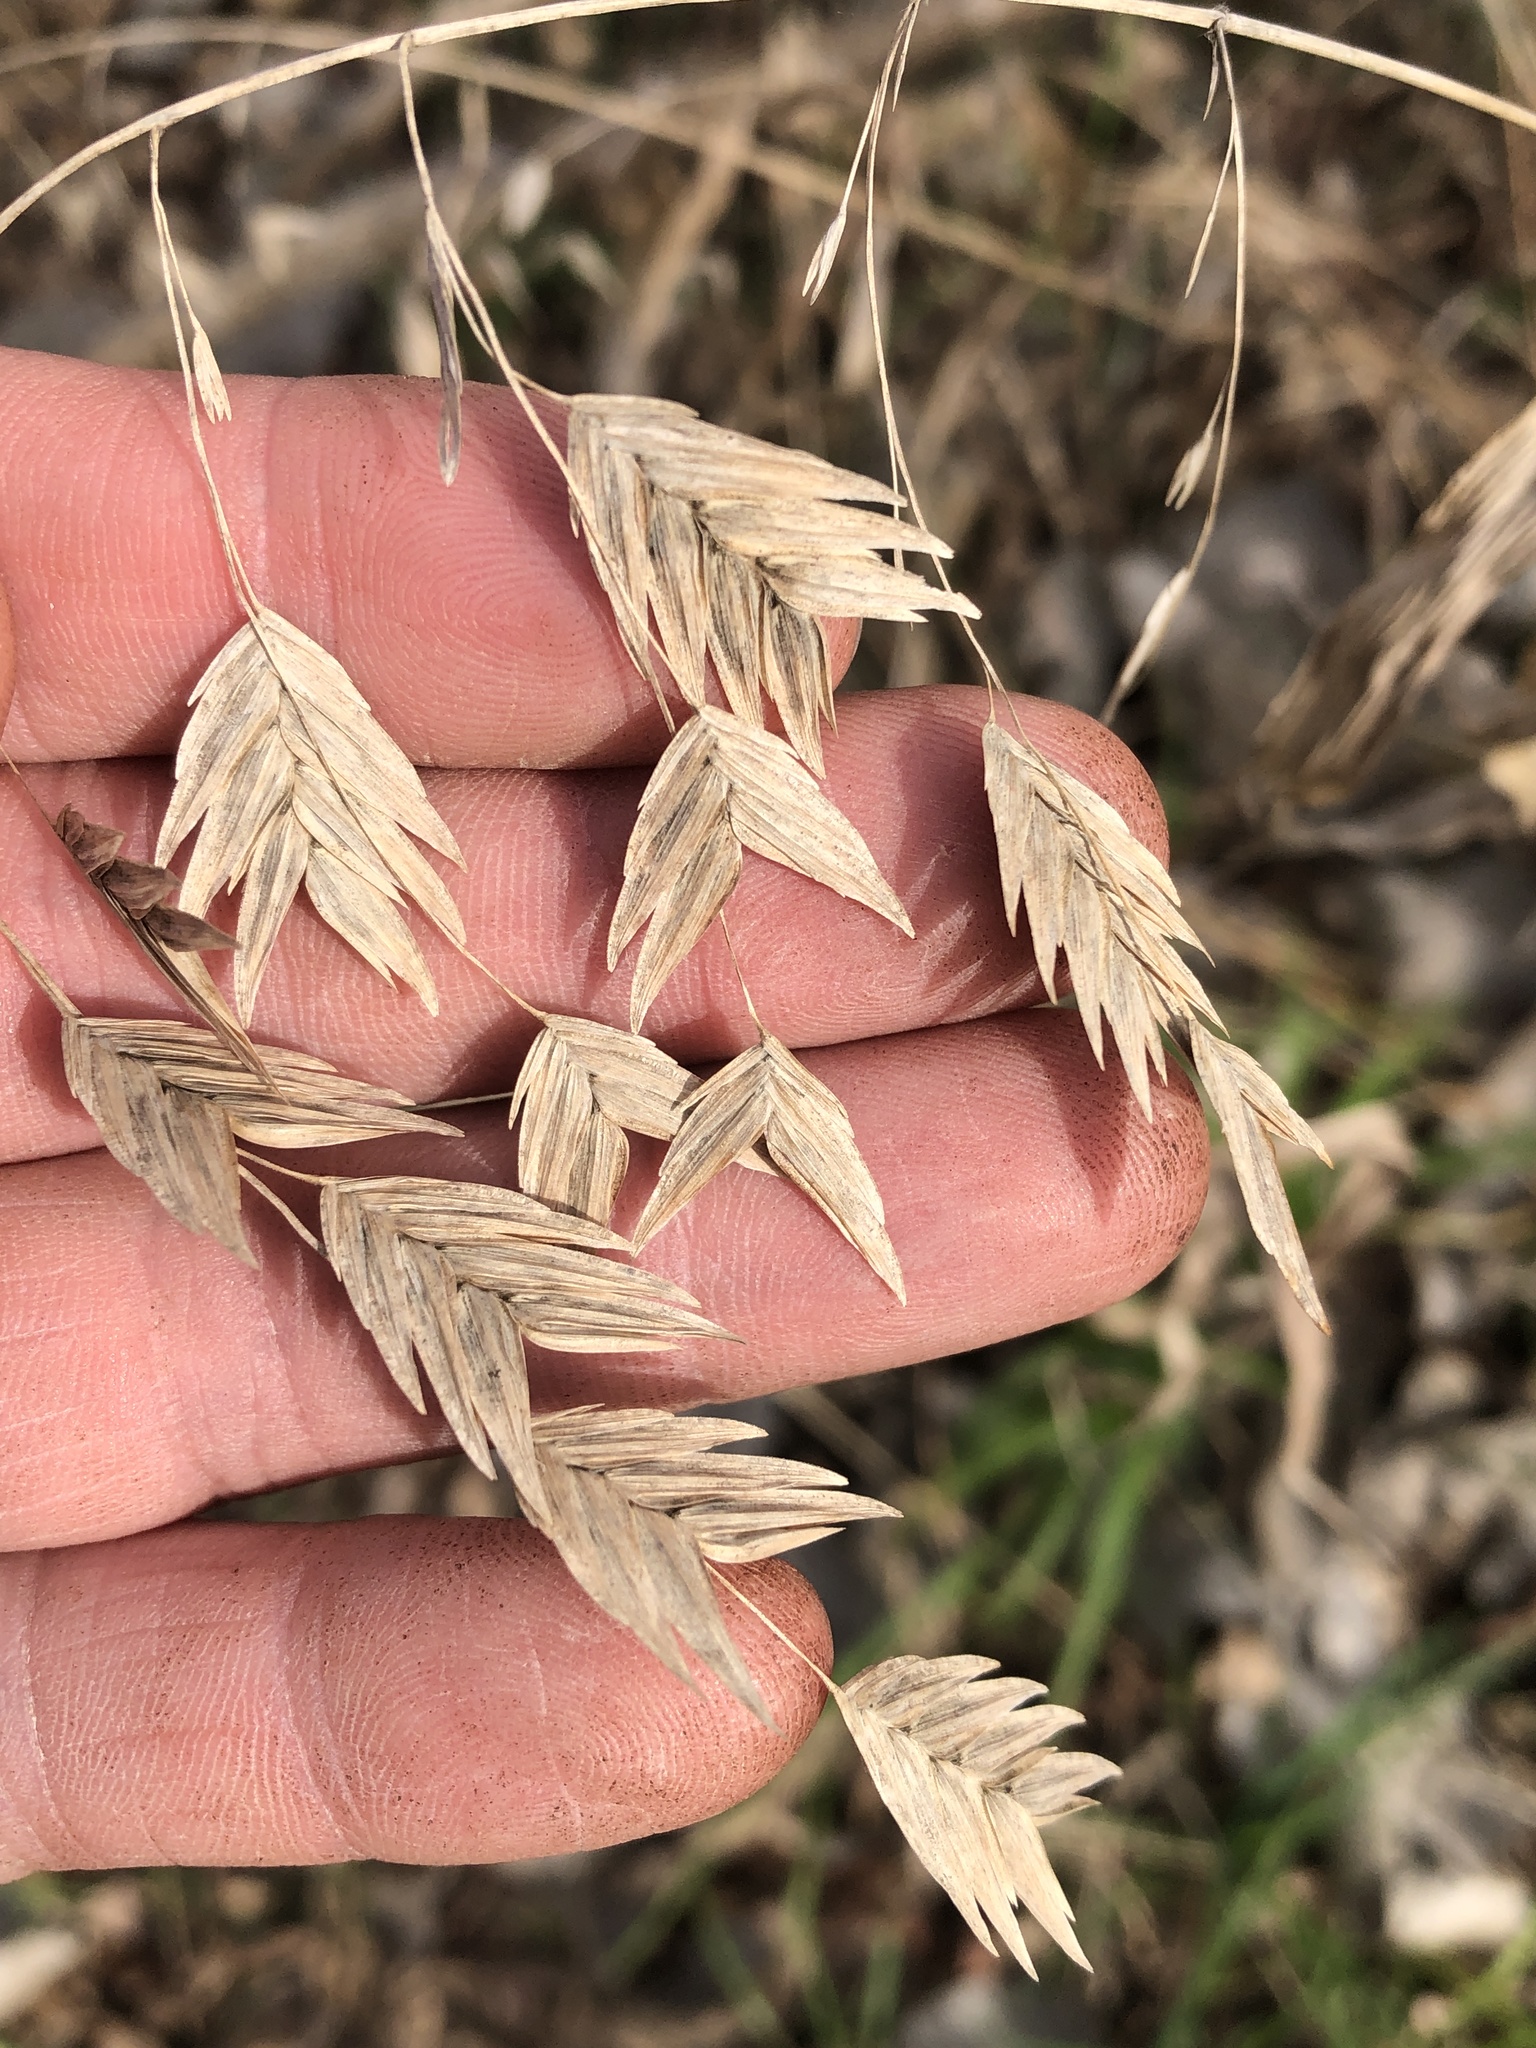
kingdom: Plantae
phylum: Tracheophyta
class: Liliopsida
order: Poales
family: Poaceae
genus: Chasmanthium
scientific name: Chasmanthium latifolium
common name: Broad-leaved chasmanthium
